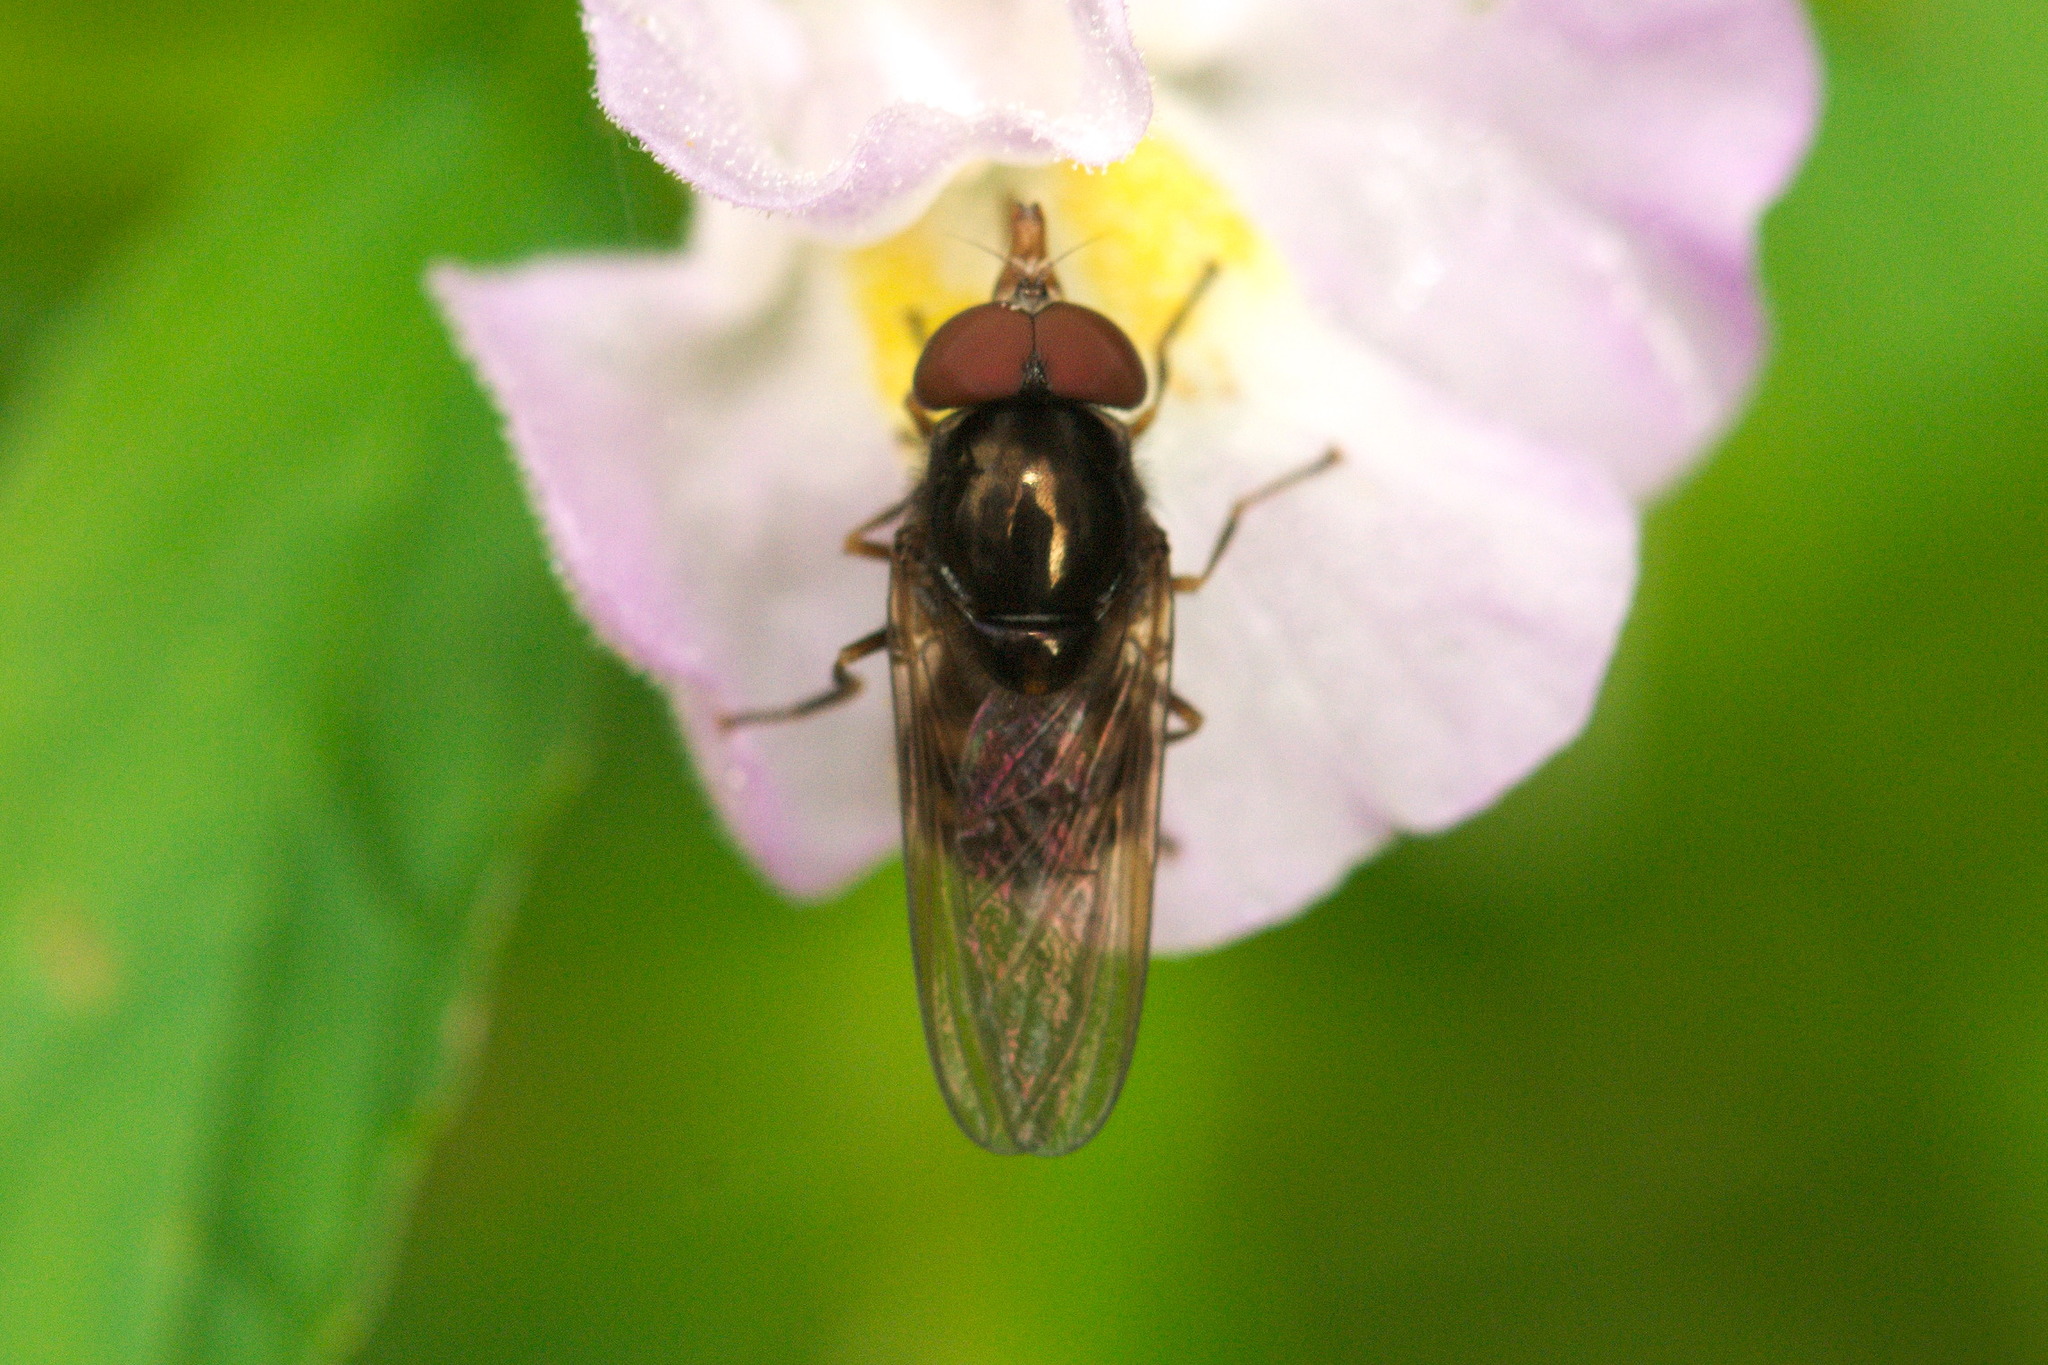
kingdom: Animalia
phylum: Arthropoda
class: Insecta
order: Diptera
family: Syrphidae
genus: Rhingia
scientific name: Rhingia nasica
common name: American snout fly
